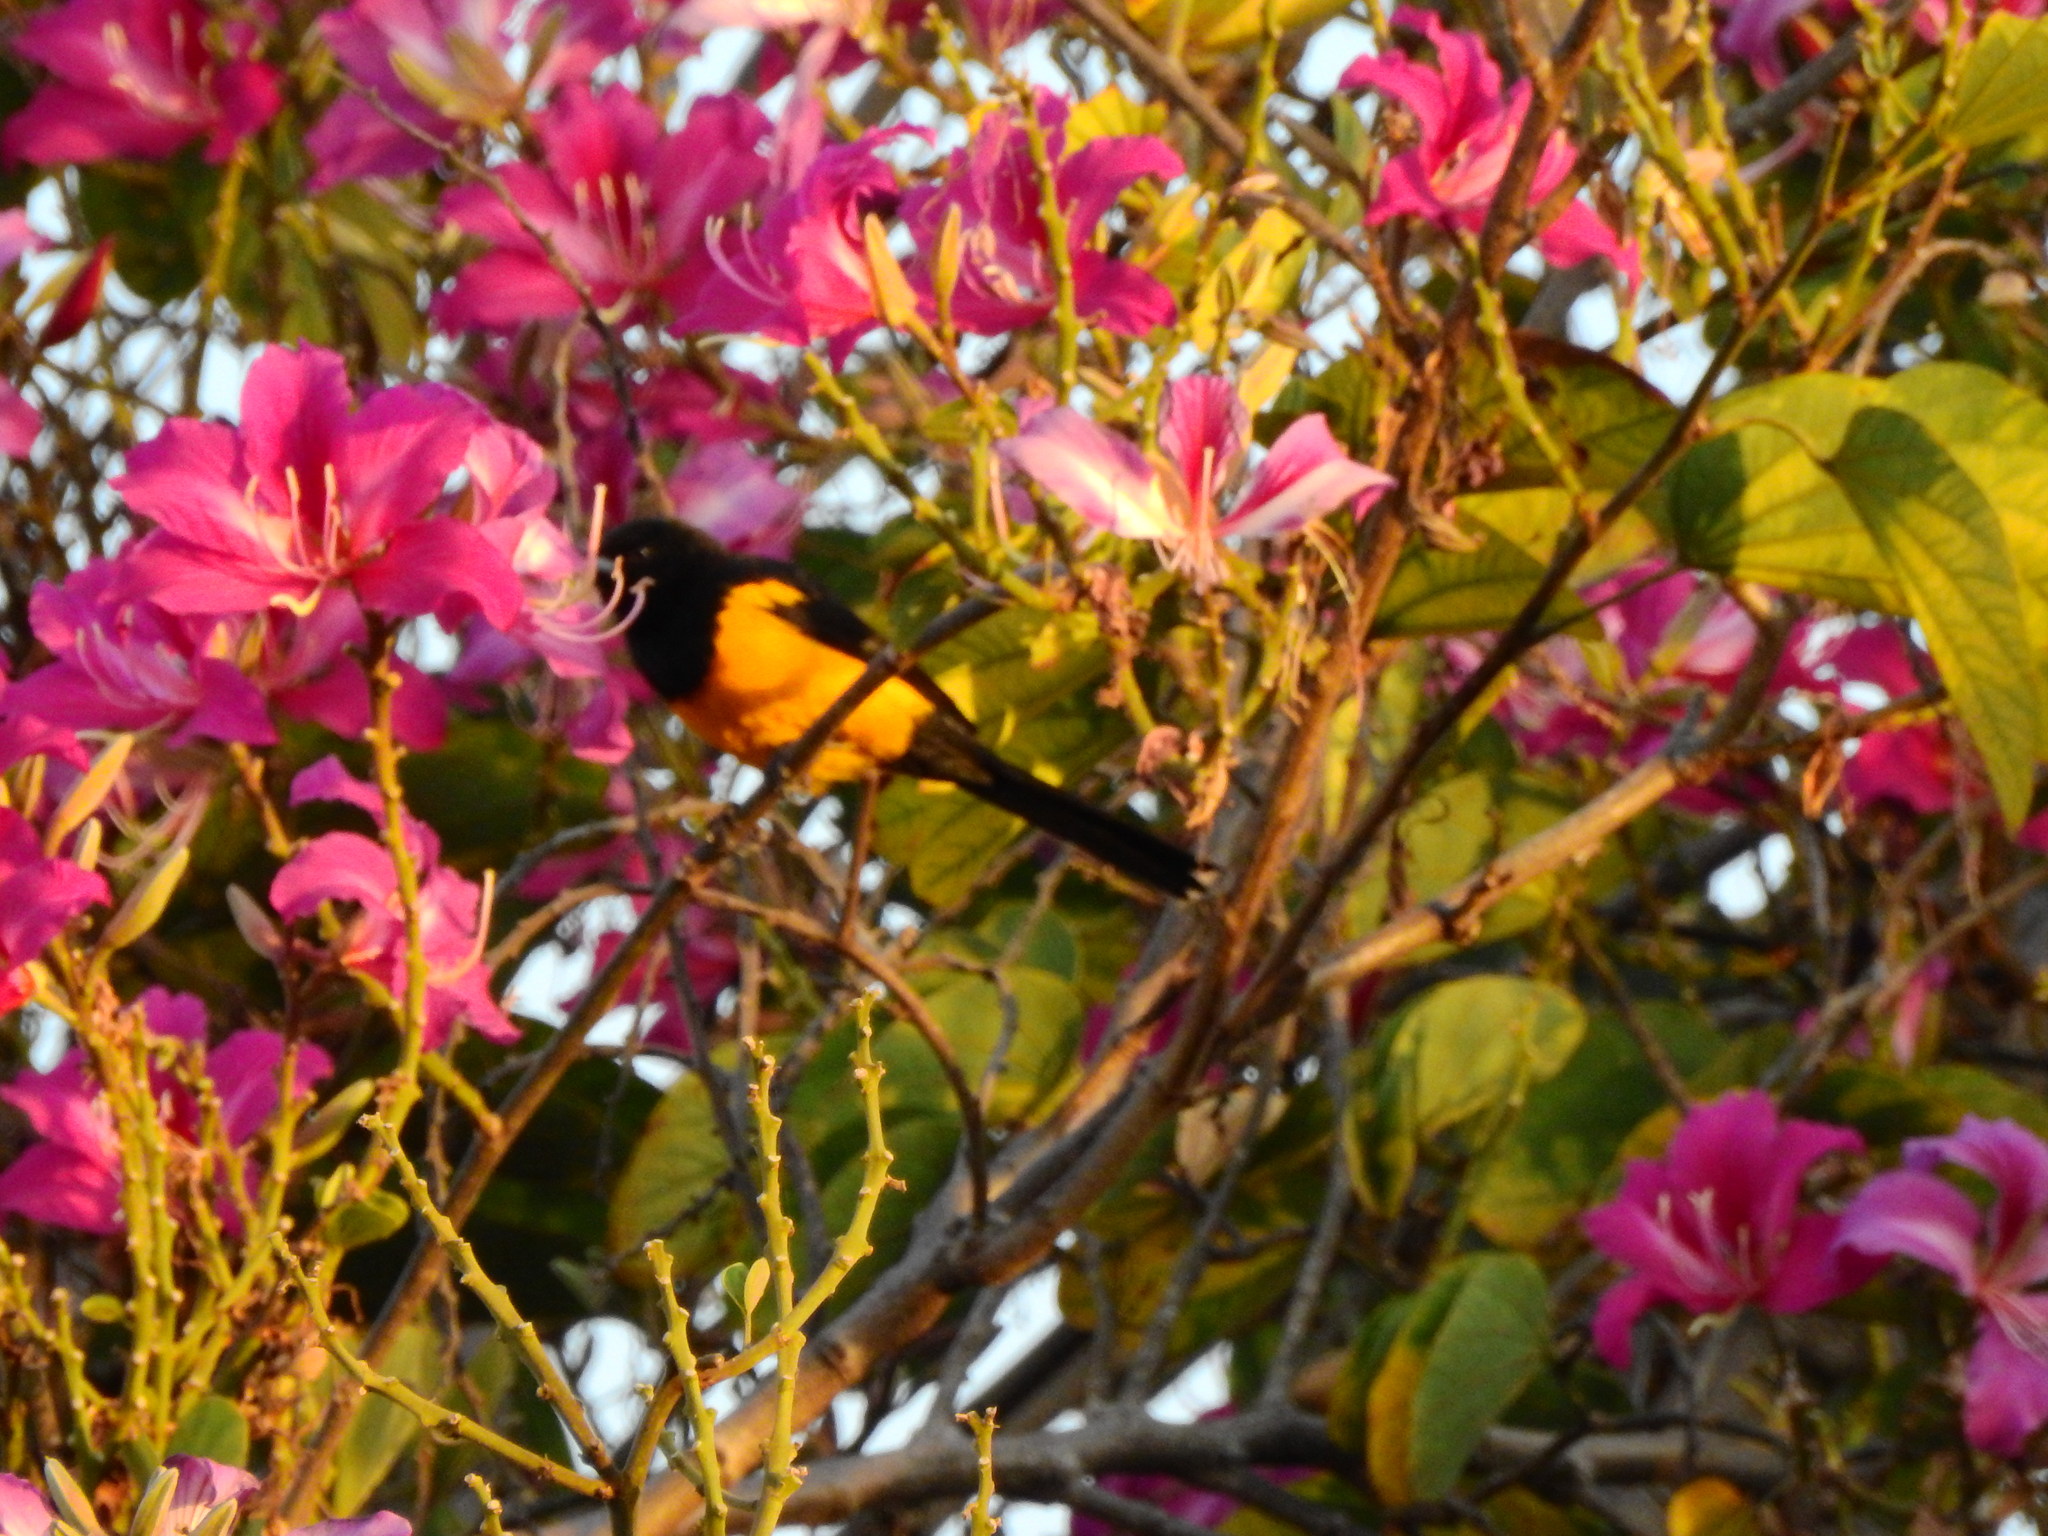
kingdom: Animalia
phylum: Chordata
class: Aves
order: Passeriformes
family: Icteridae
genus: Icterus
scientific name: Icterus wagleri
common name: Black-vented oriole
